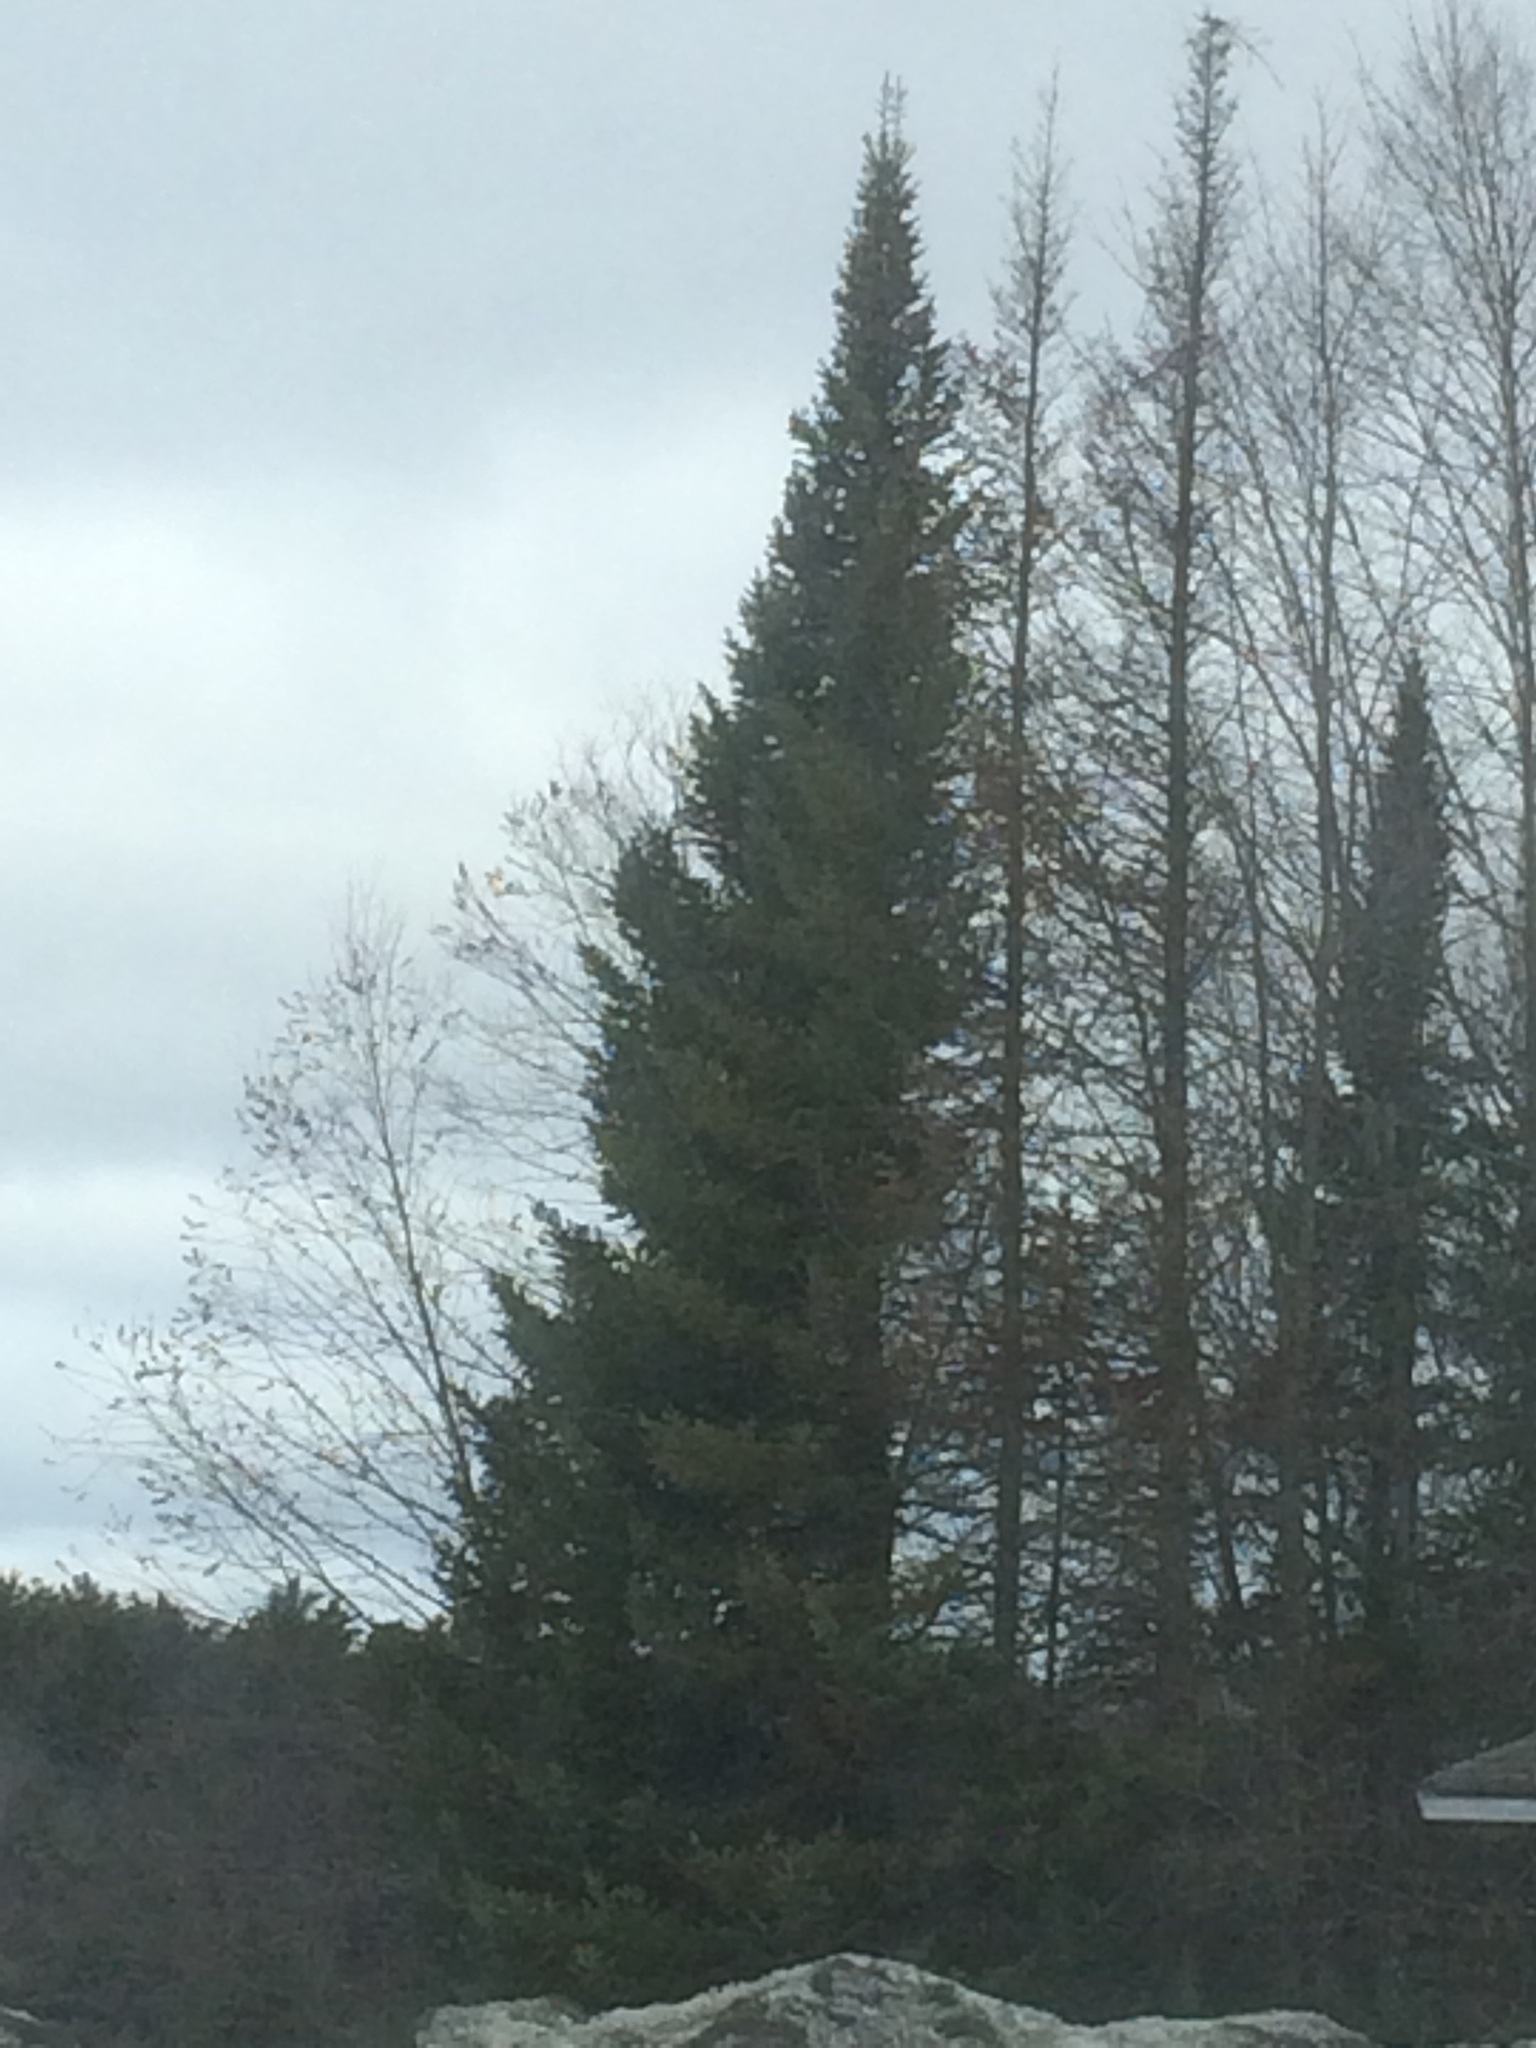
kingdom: Plantae
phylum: Tracheophyta
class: Pinopsida
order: Pinales
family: Pinaceae
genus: Abies
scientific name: Abies balsamea
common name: Balsam fir
